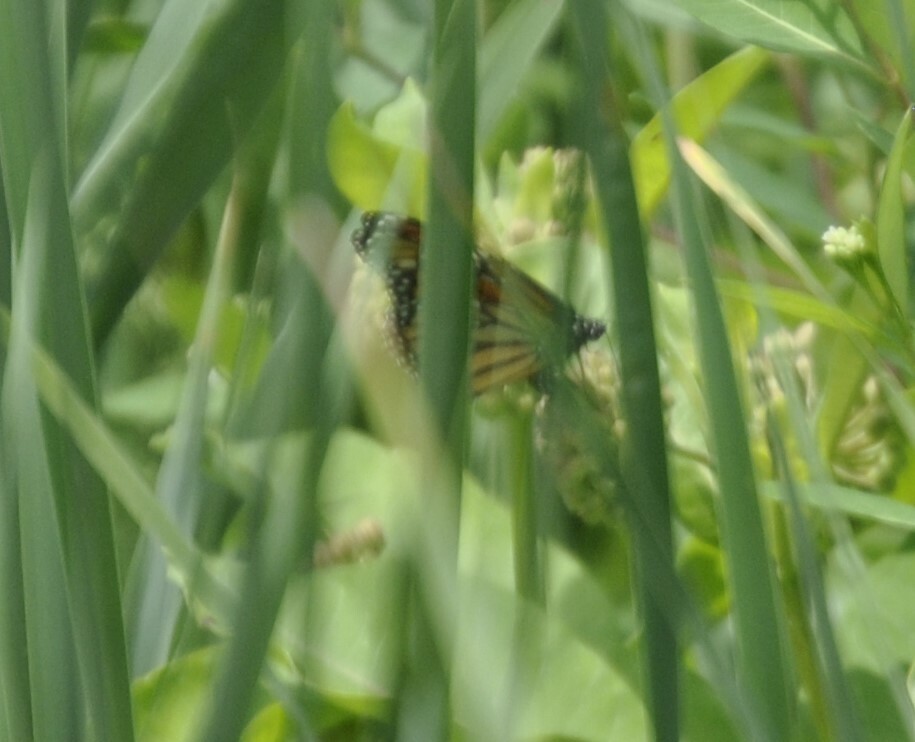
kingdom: Animalia
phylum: Arthropoda
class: Insecta
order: Lepidoptera
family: Nymphalidae
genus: Danaus
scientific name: Danaus plexippus
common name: Monarch
